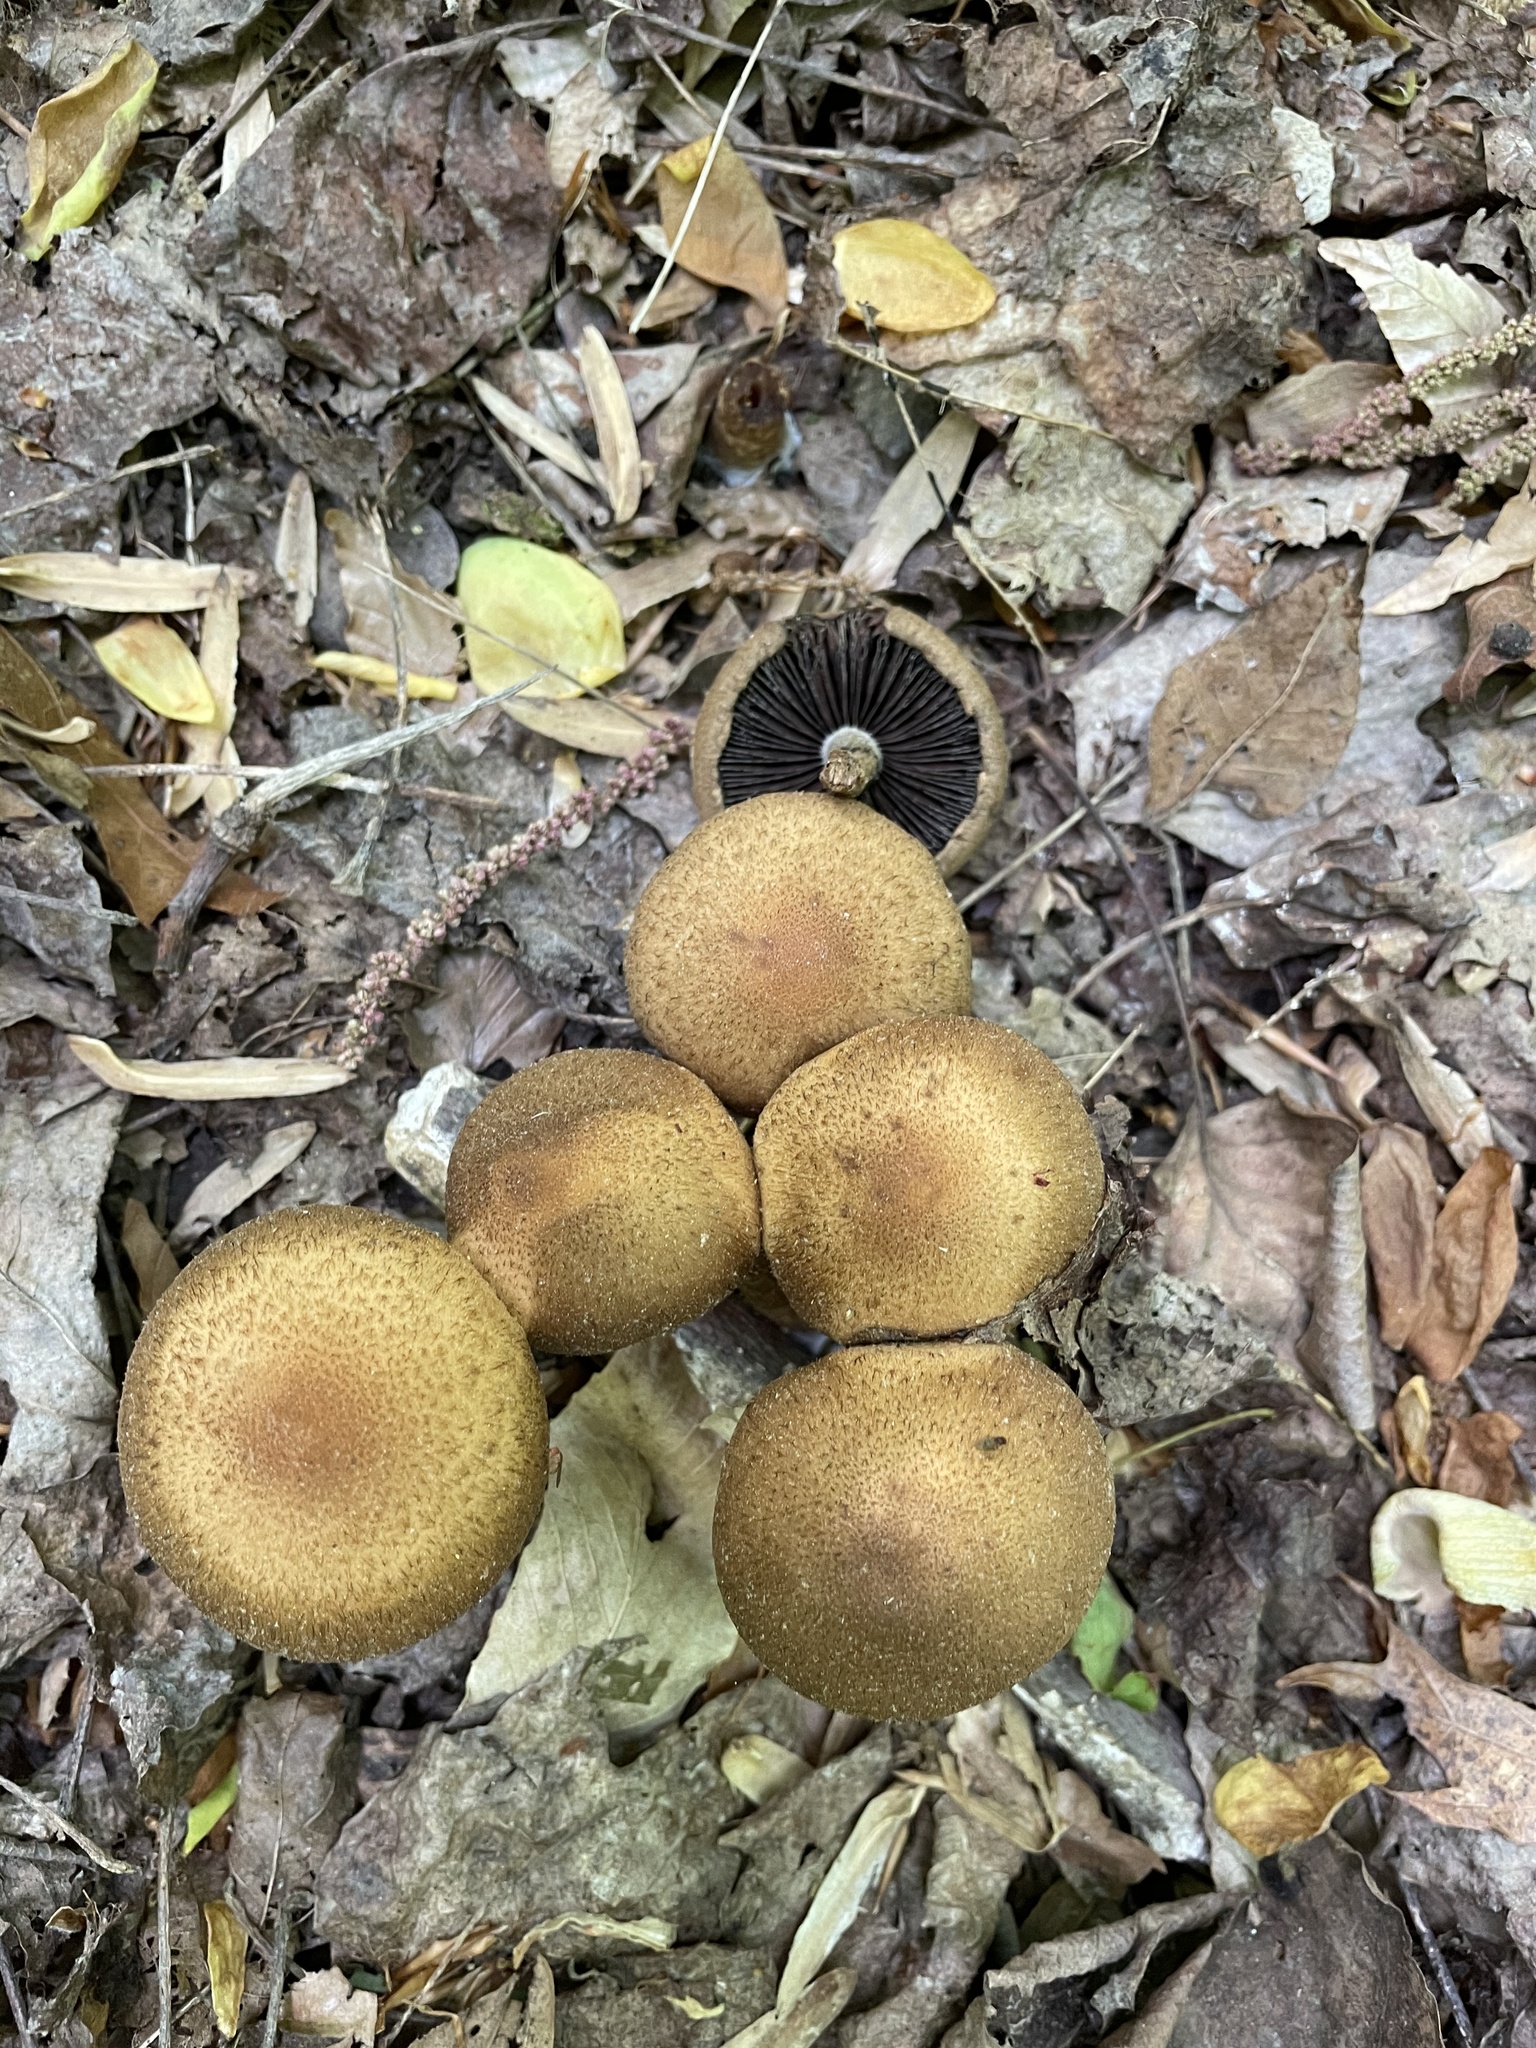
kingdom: Fungi
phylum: Basidiomycota
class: Agaricomycetes
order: Agaricales
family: Psathyrellaceae
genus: Lacrymaria
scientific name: Lacrymaria lacrymabunda
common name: Weeping widow
